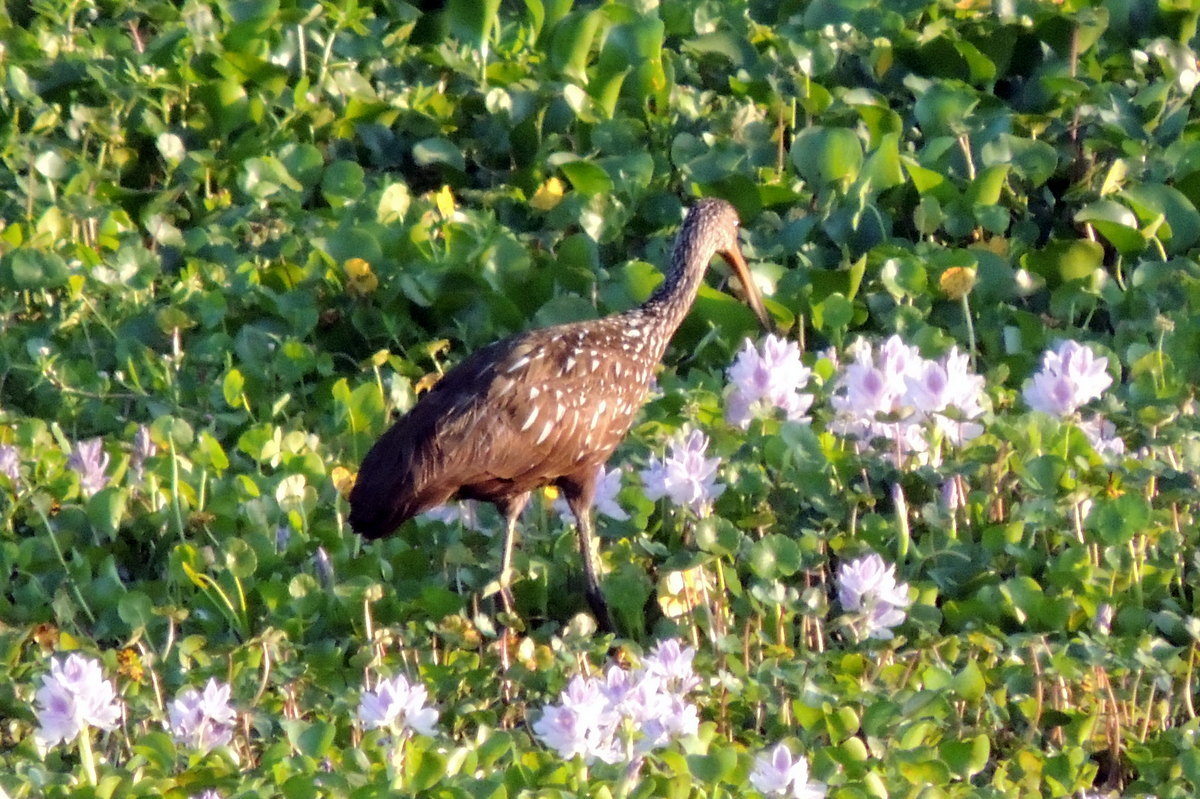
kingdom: Animalia
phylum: Chordata
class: Aves
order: Gruiformes
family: Aramidae
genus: Aramus
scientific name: Aramus guarauna
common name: Limpkin
